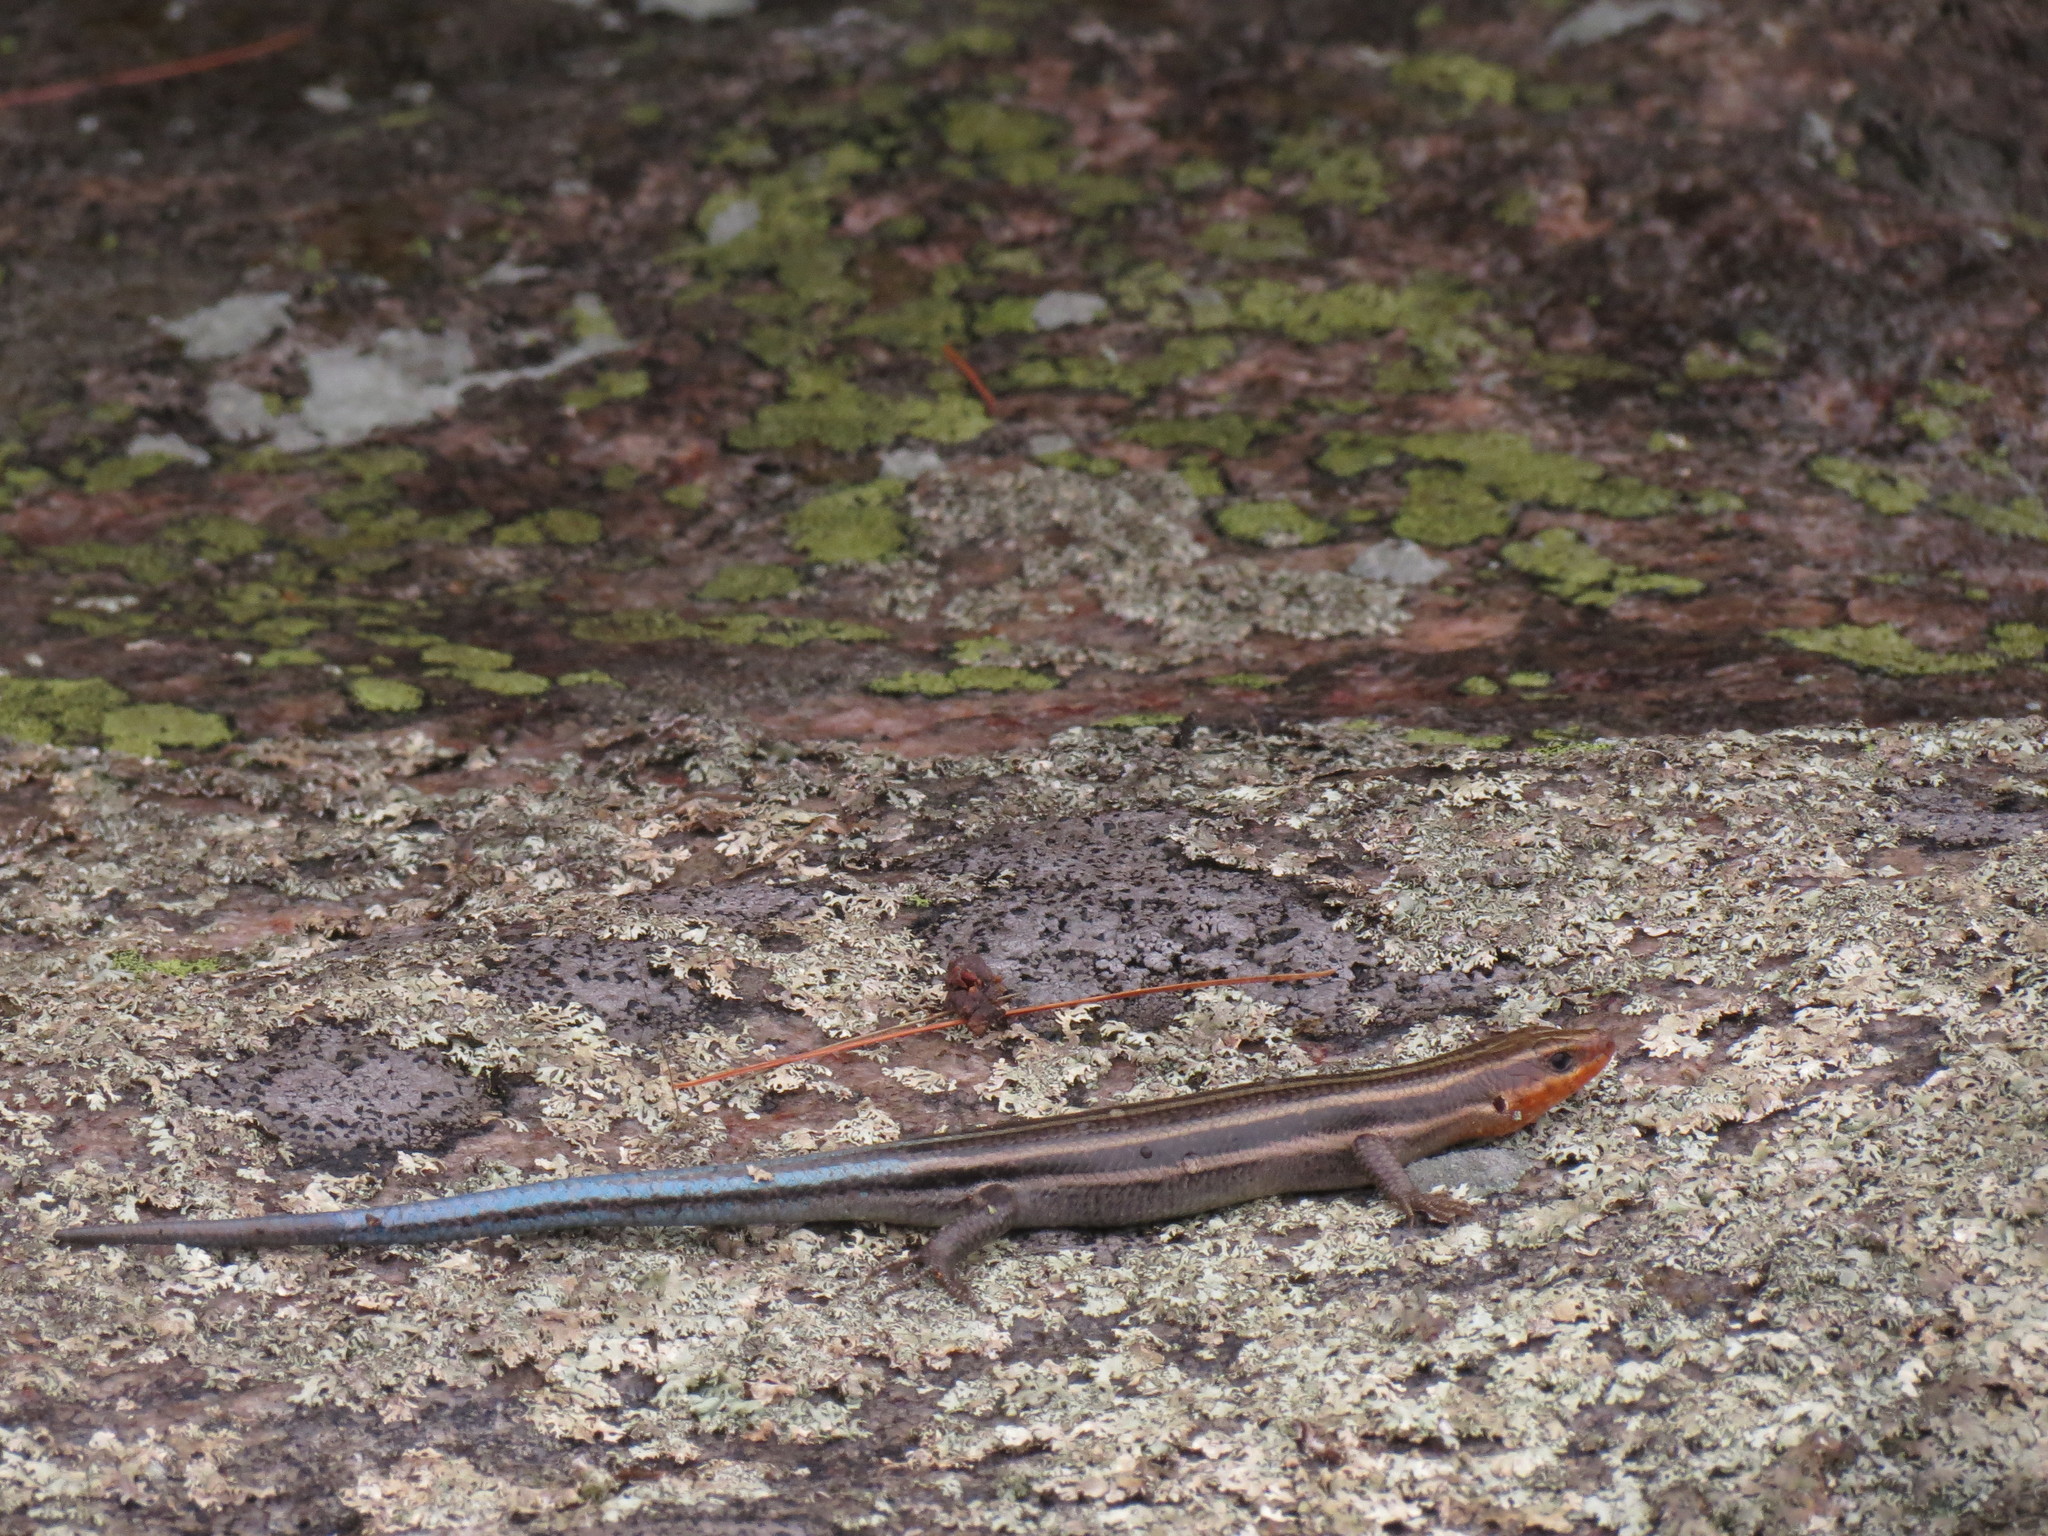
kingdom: Animalia
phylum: Chordata
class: Squamata
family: Scincidae
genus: Plestiodon
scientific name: Plestiodon fasciatus
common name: Five-lined skink
